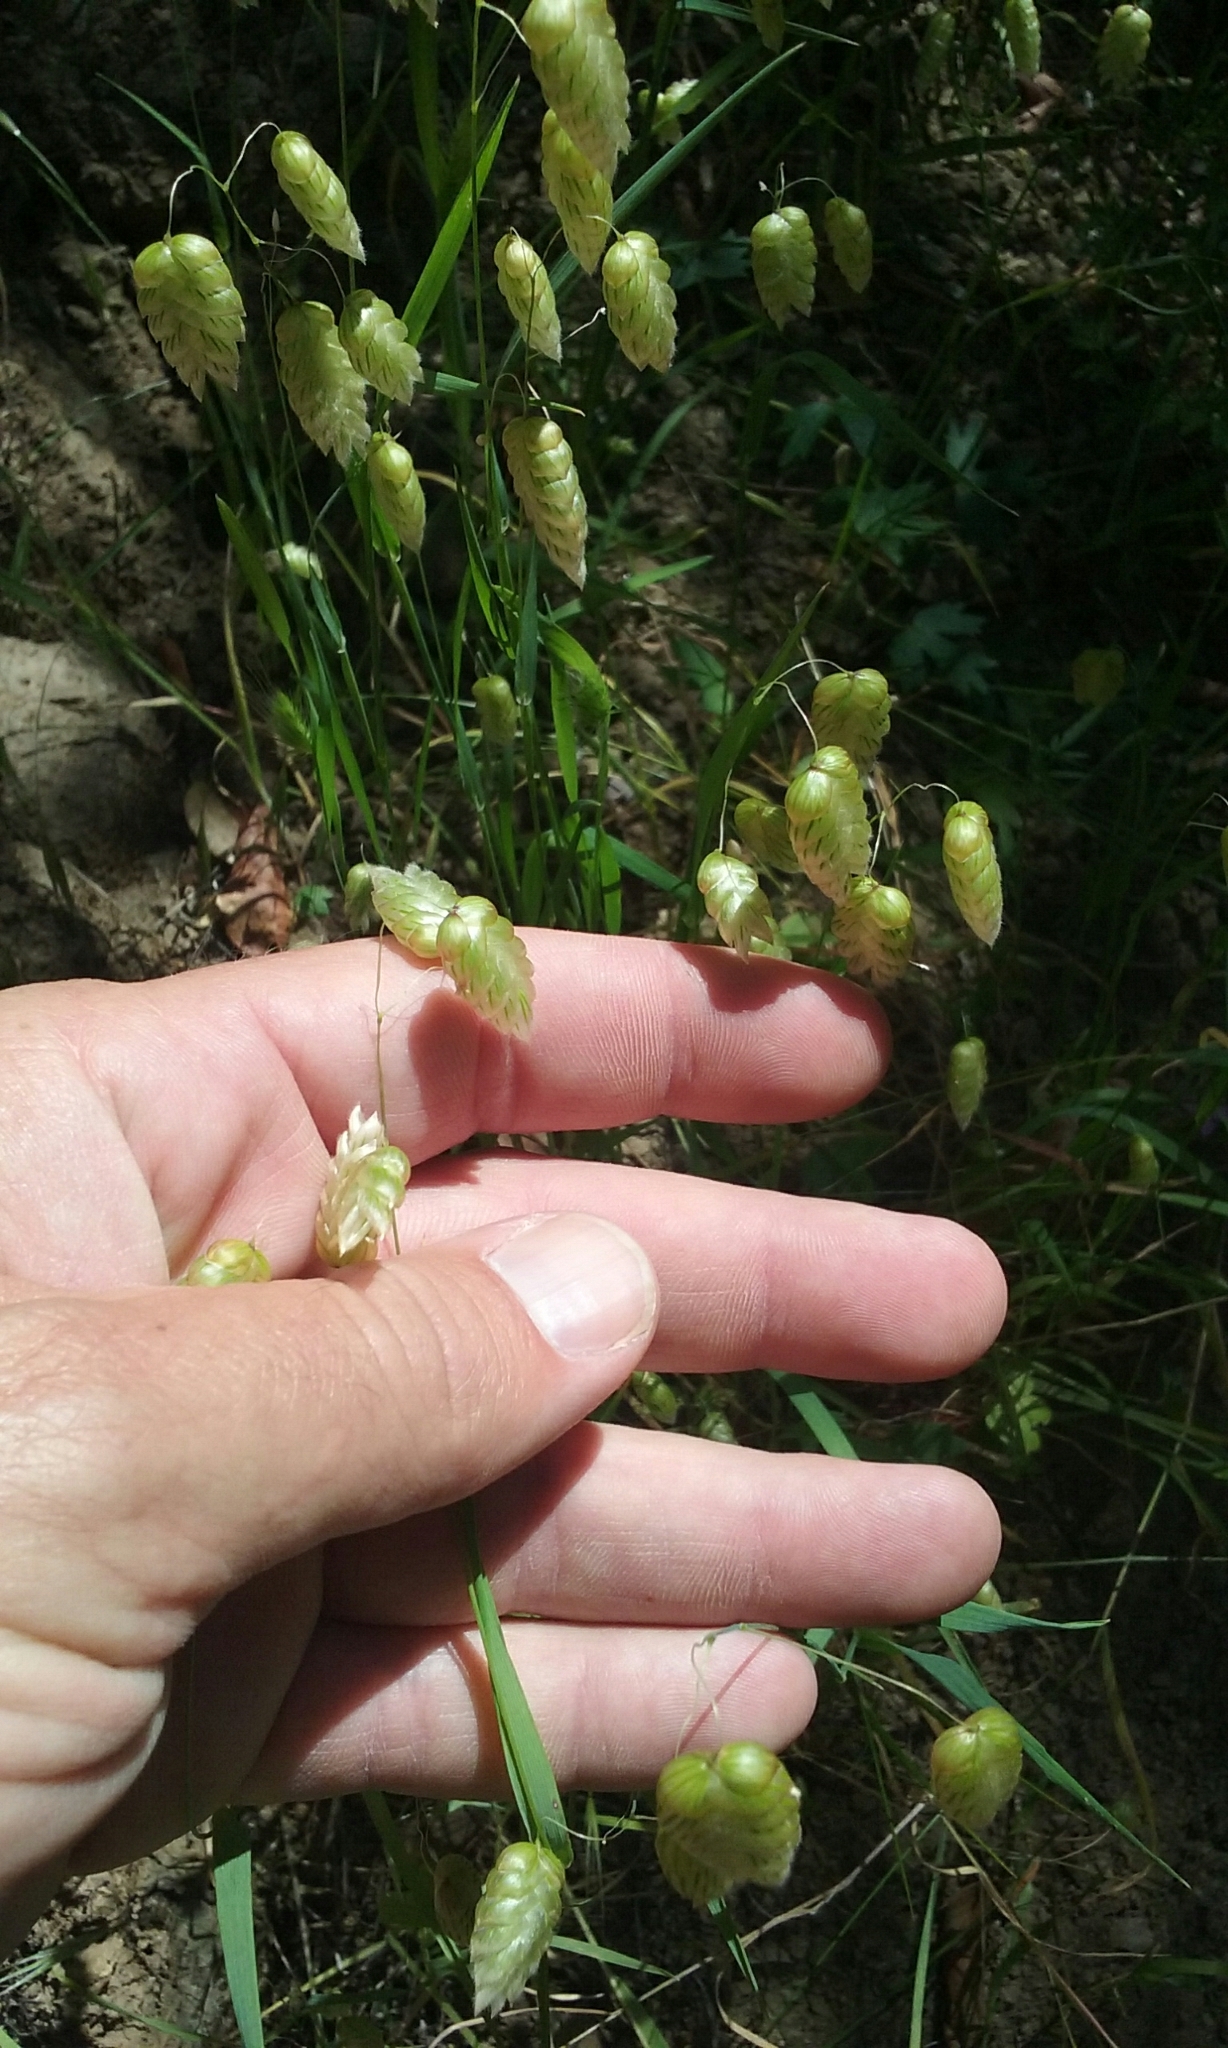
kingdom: Plantae
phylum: Tracheophyta
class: Liliopsida
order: Poales
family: Poaceae
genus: Briza
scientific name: Briza maxima
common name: Big quakinggrass
